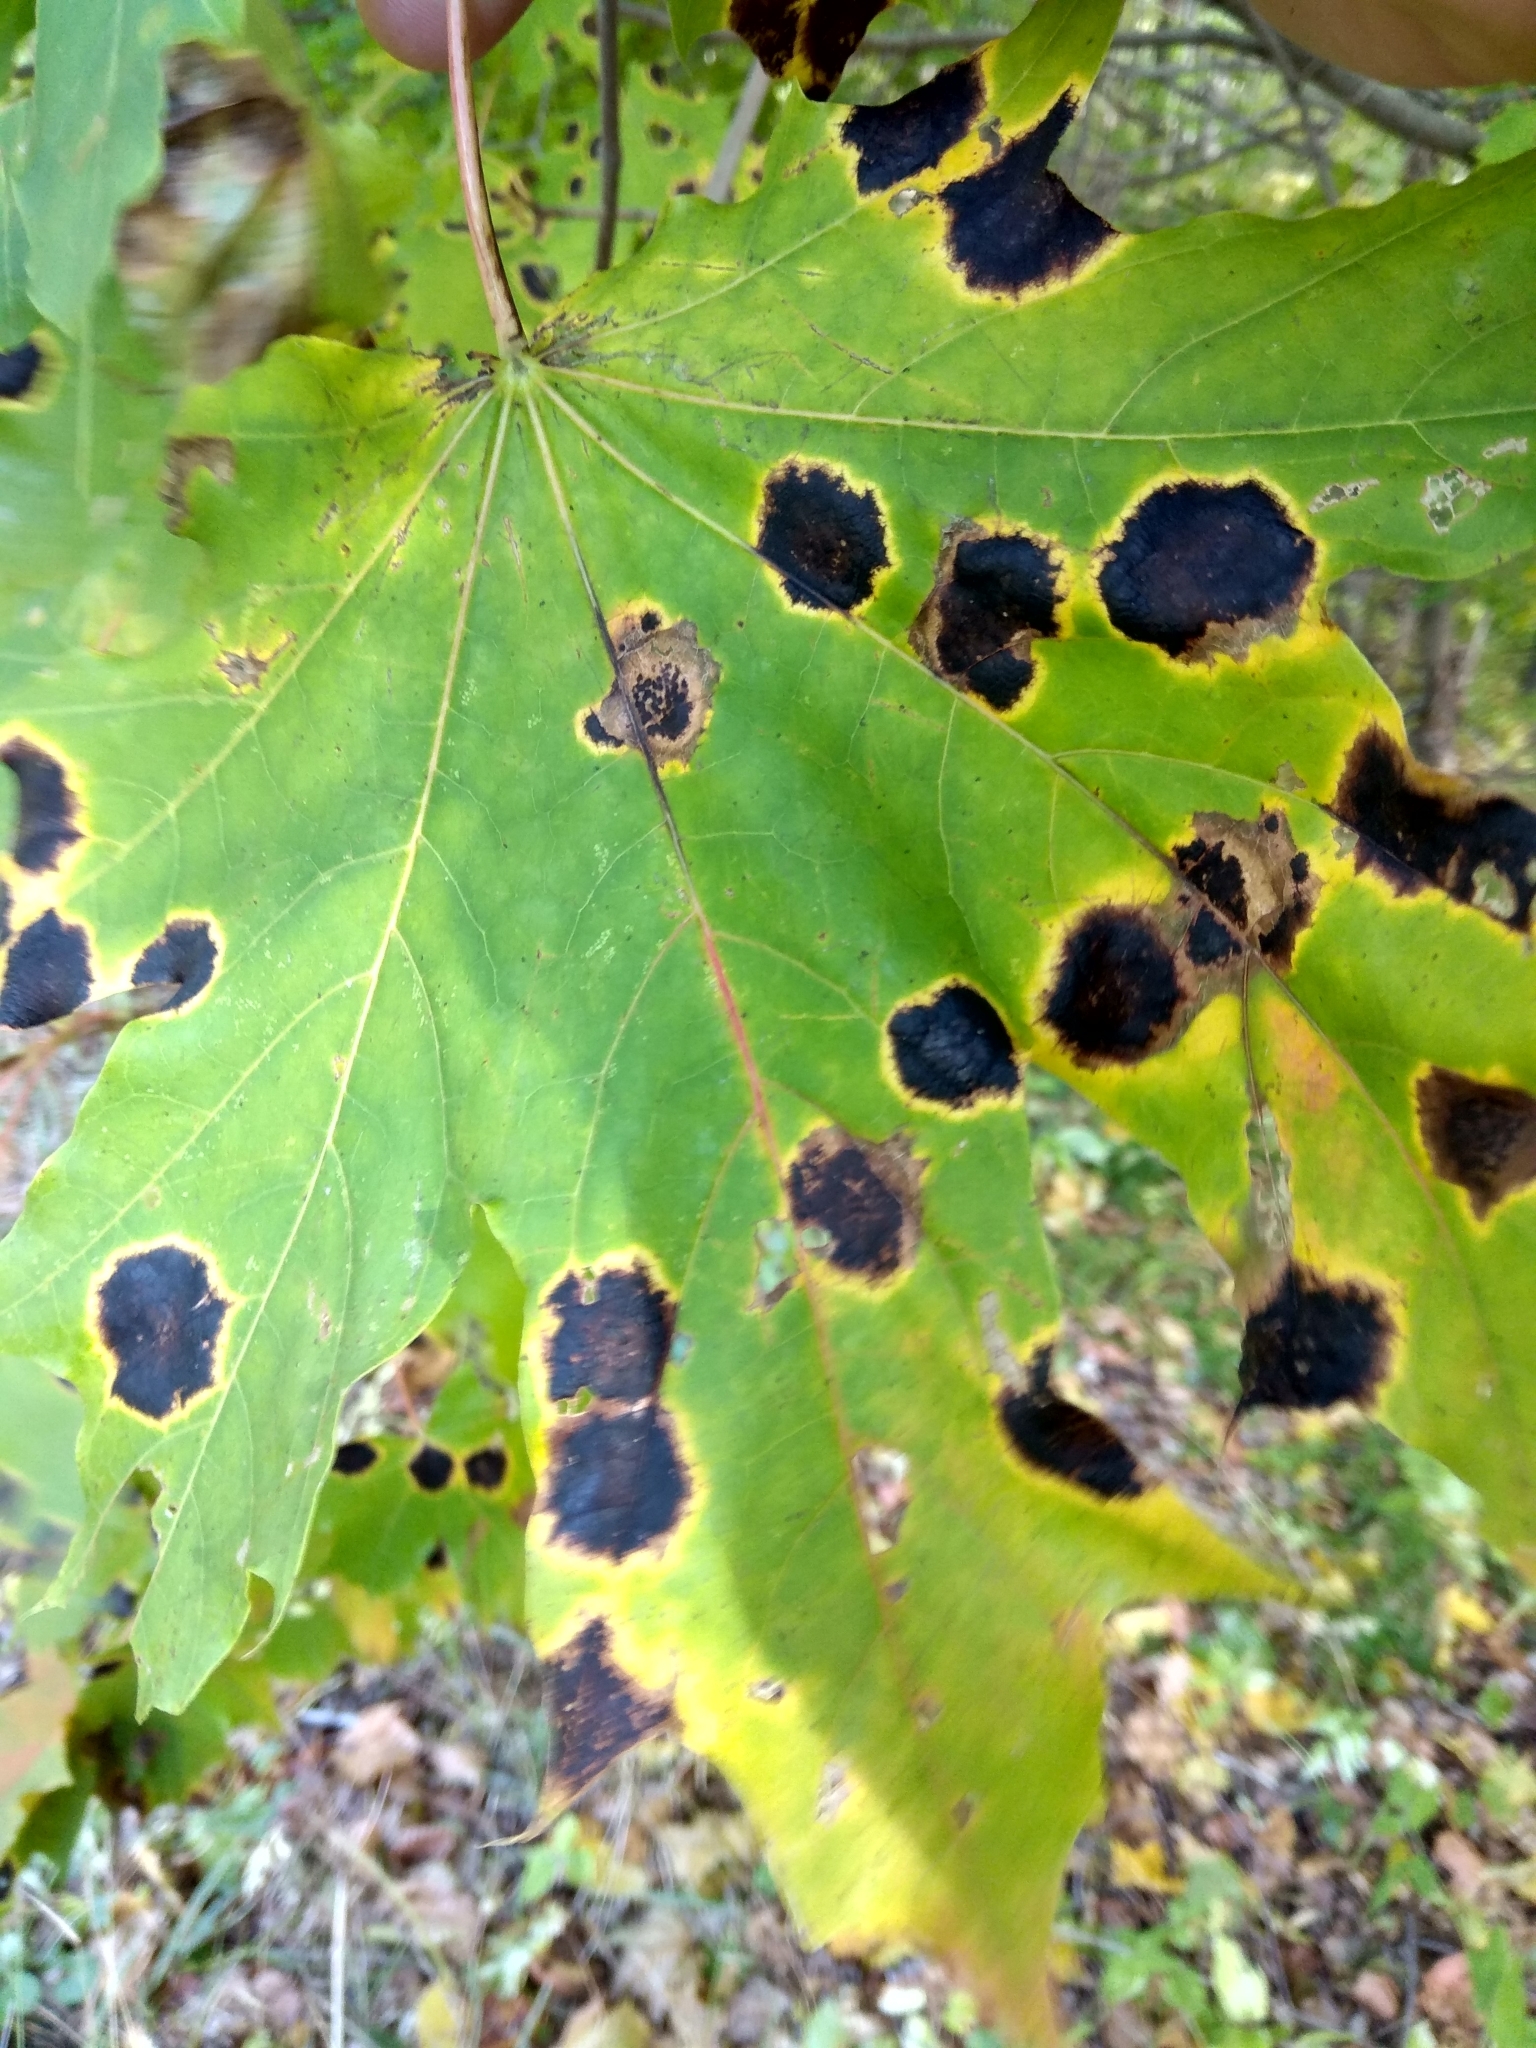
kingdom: Fungi
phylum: Ascomycota
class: Leotiomycetes
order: Rhytismatales
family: Rhytismataceae
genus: Rhytisma
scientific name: Rhytisma acerinum
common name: European tar spot
